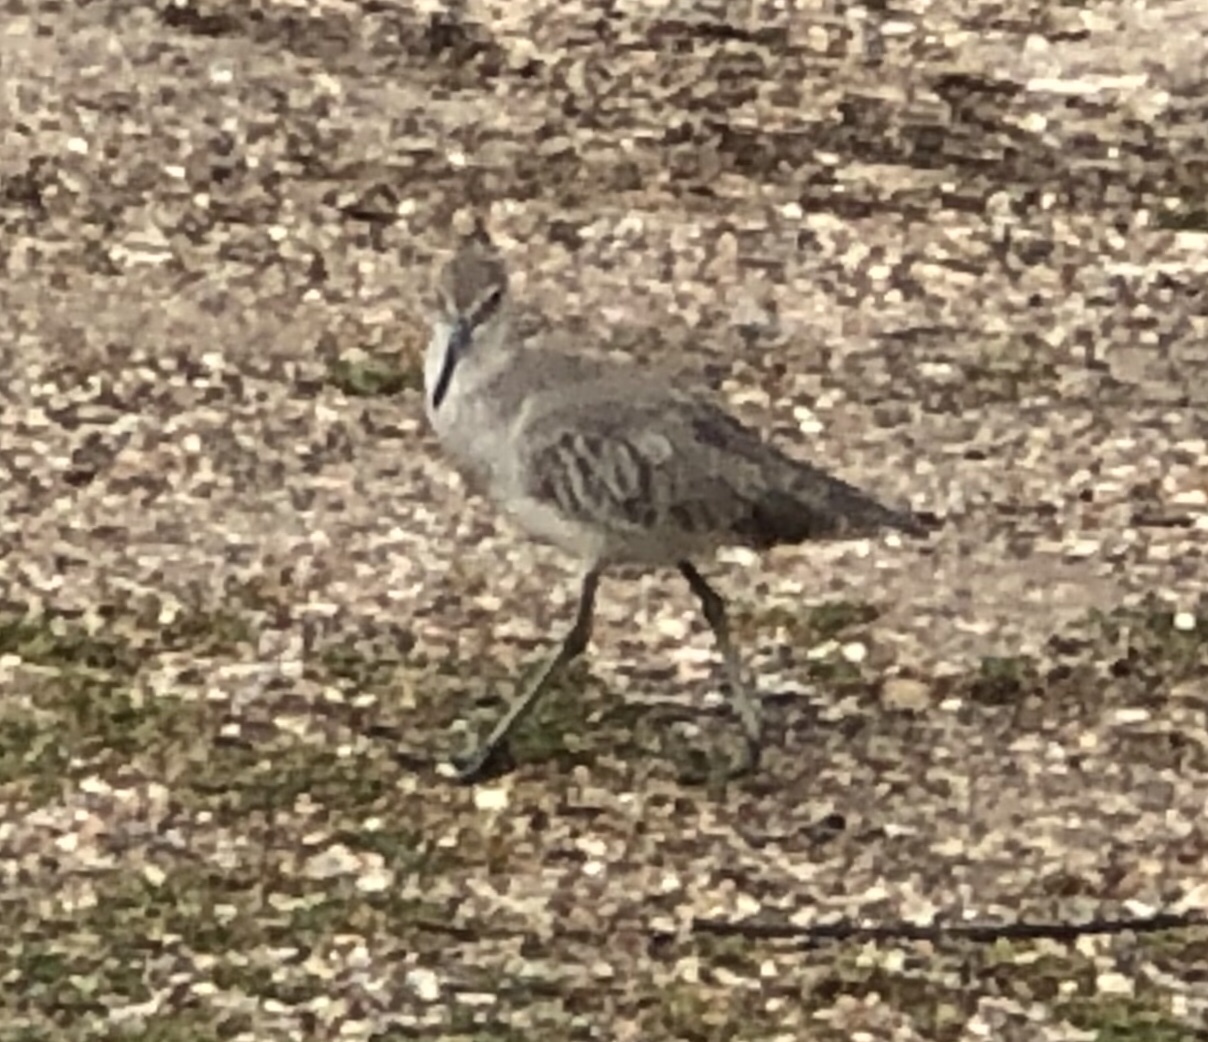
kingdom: Animalia
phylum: Chordata
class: Aves
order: Charadriiformes
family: Scolopacidae
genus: Tringa
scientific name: Tringa semipalmata
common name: Willet
